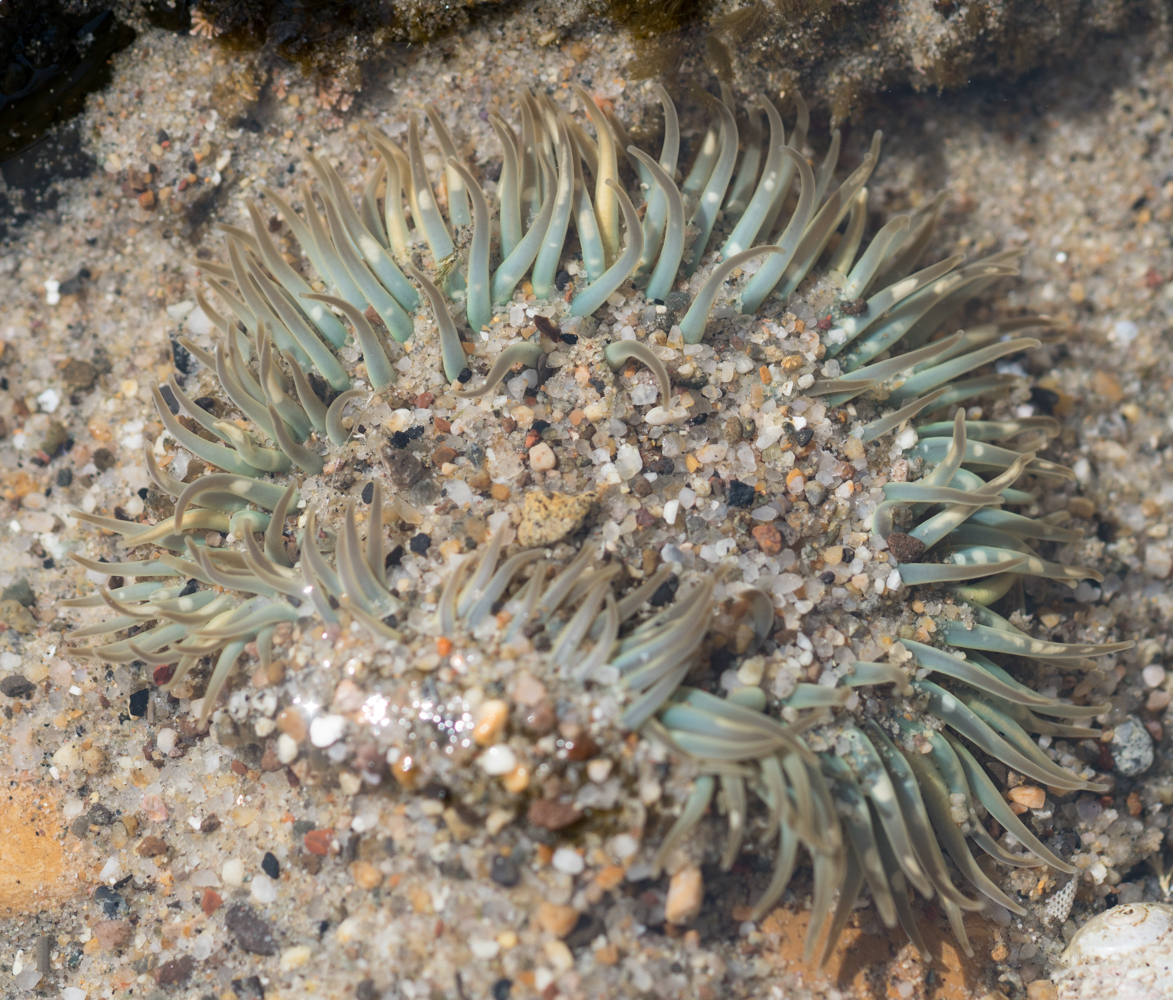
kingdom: Animalia
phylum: Cnidaria
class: Anthozoa
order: Actiniaria
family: Actiniidae
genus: Anthopleura
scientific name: Anthopleura sola
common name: Sun anemone
